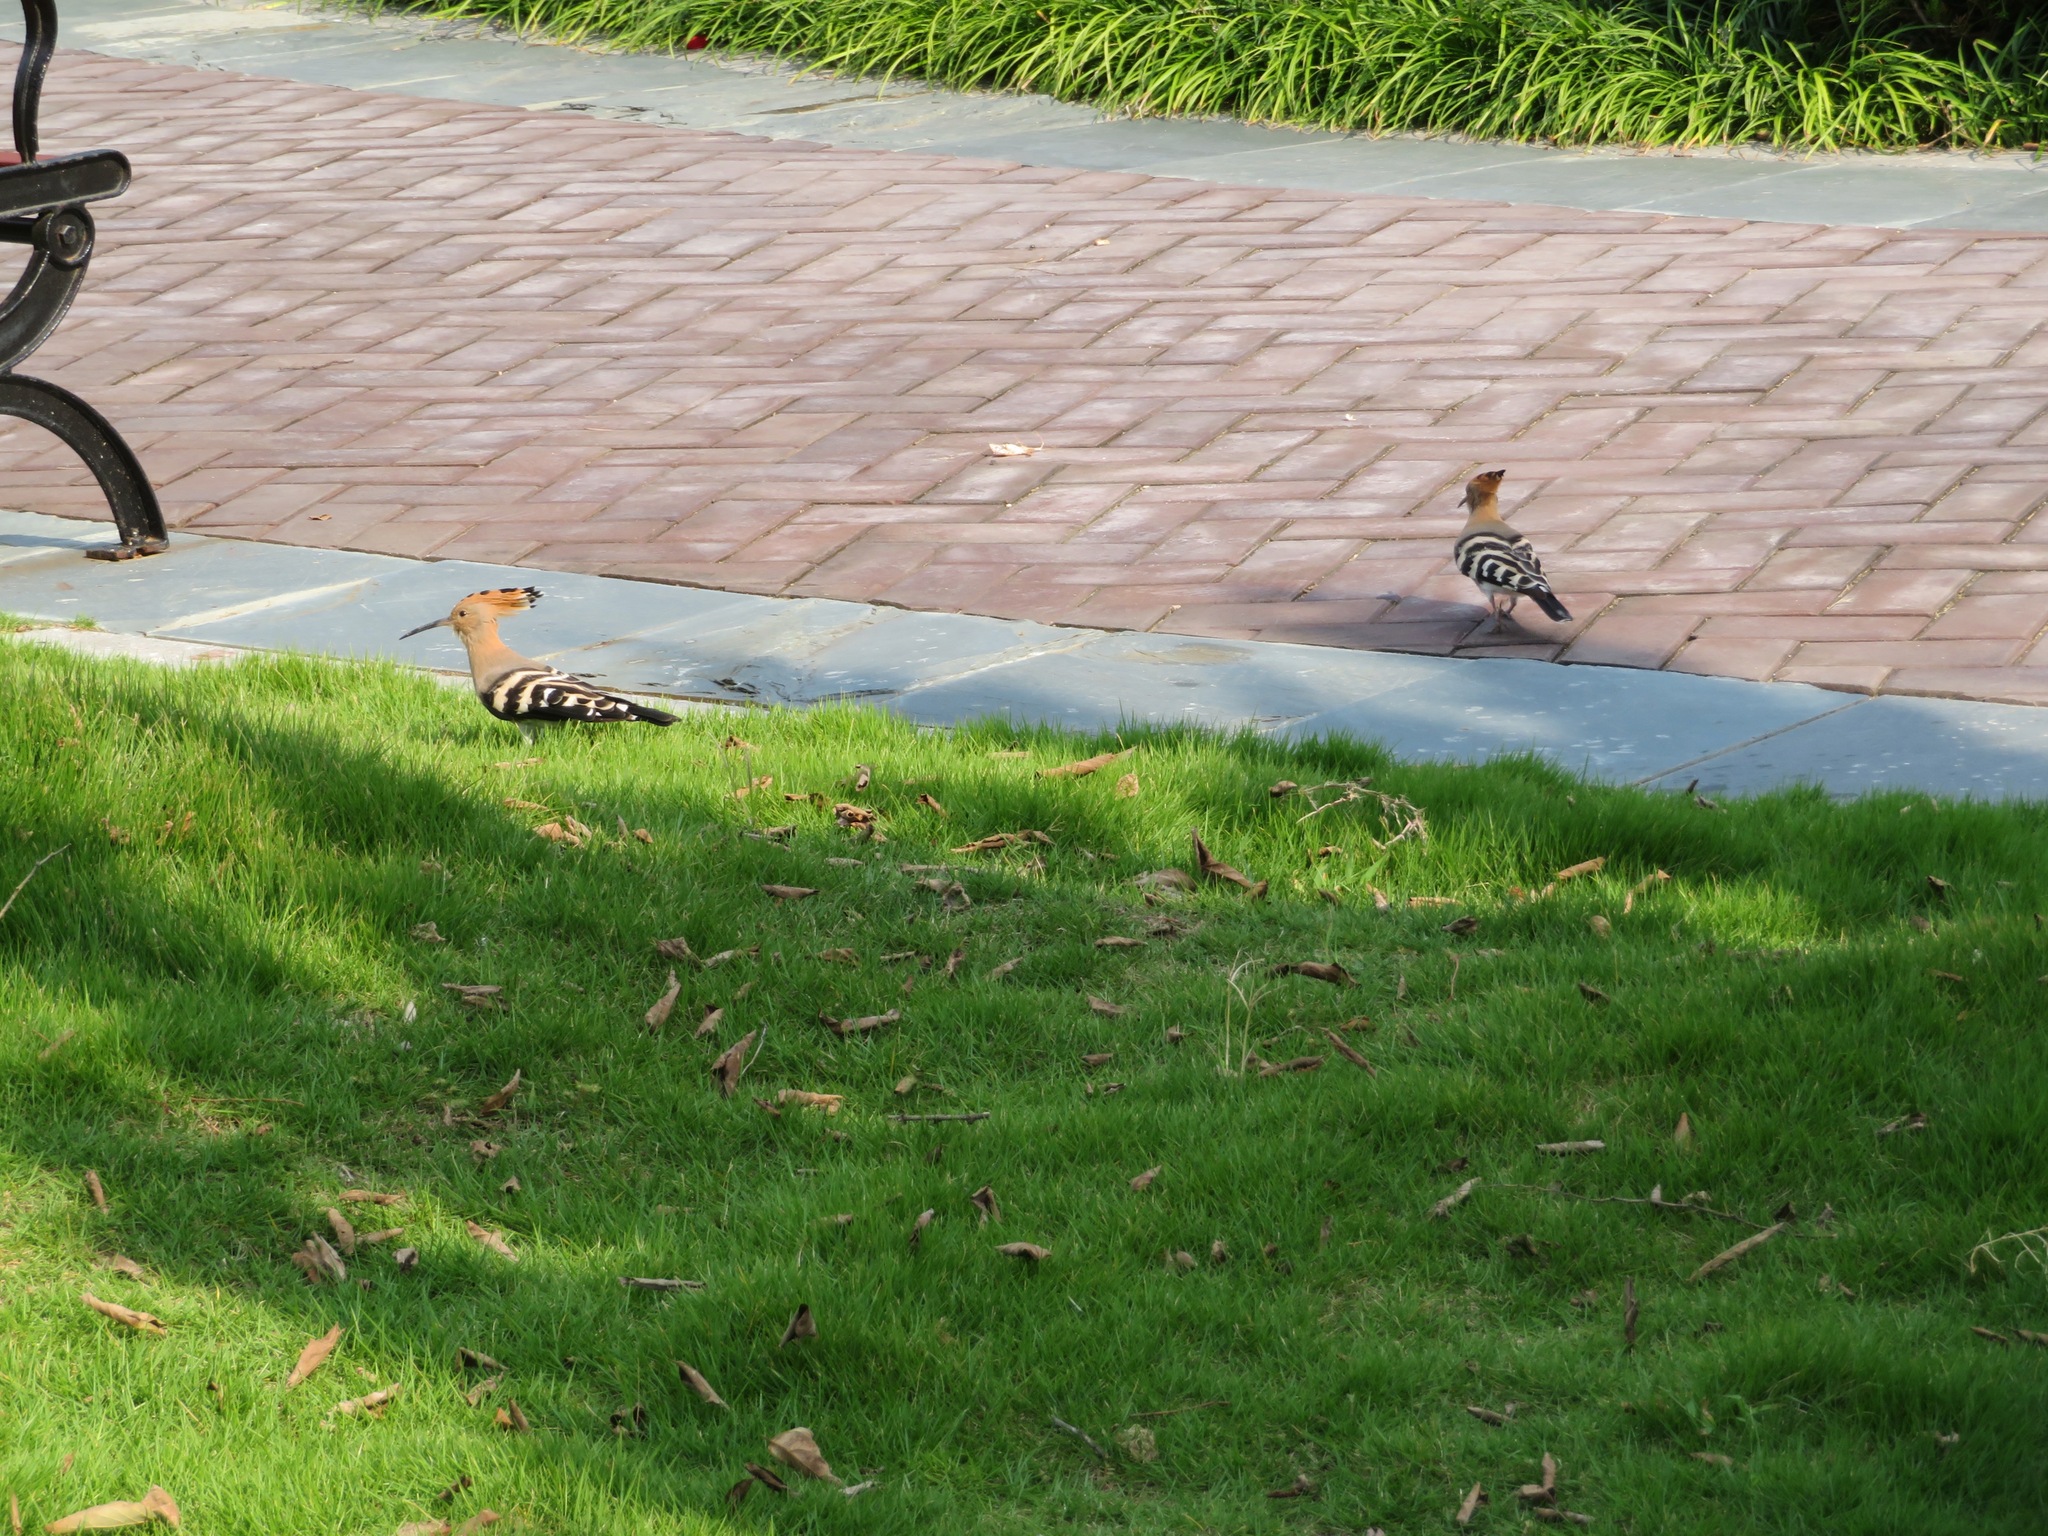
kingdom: Animalia
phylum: Chordata
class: Aves
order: Bucerotiformes
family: Upupidae
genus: Upupa
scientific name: Upupa epops
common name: Eurasian hoopoe
